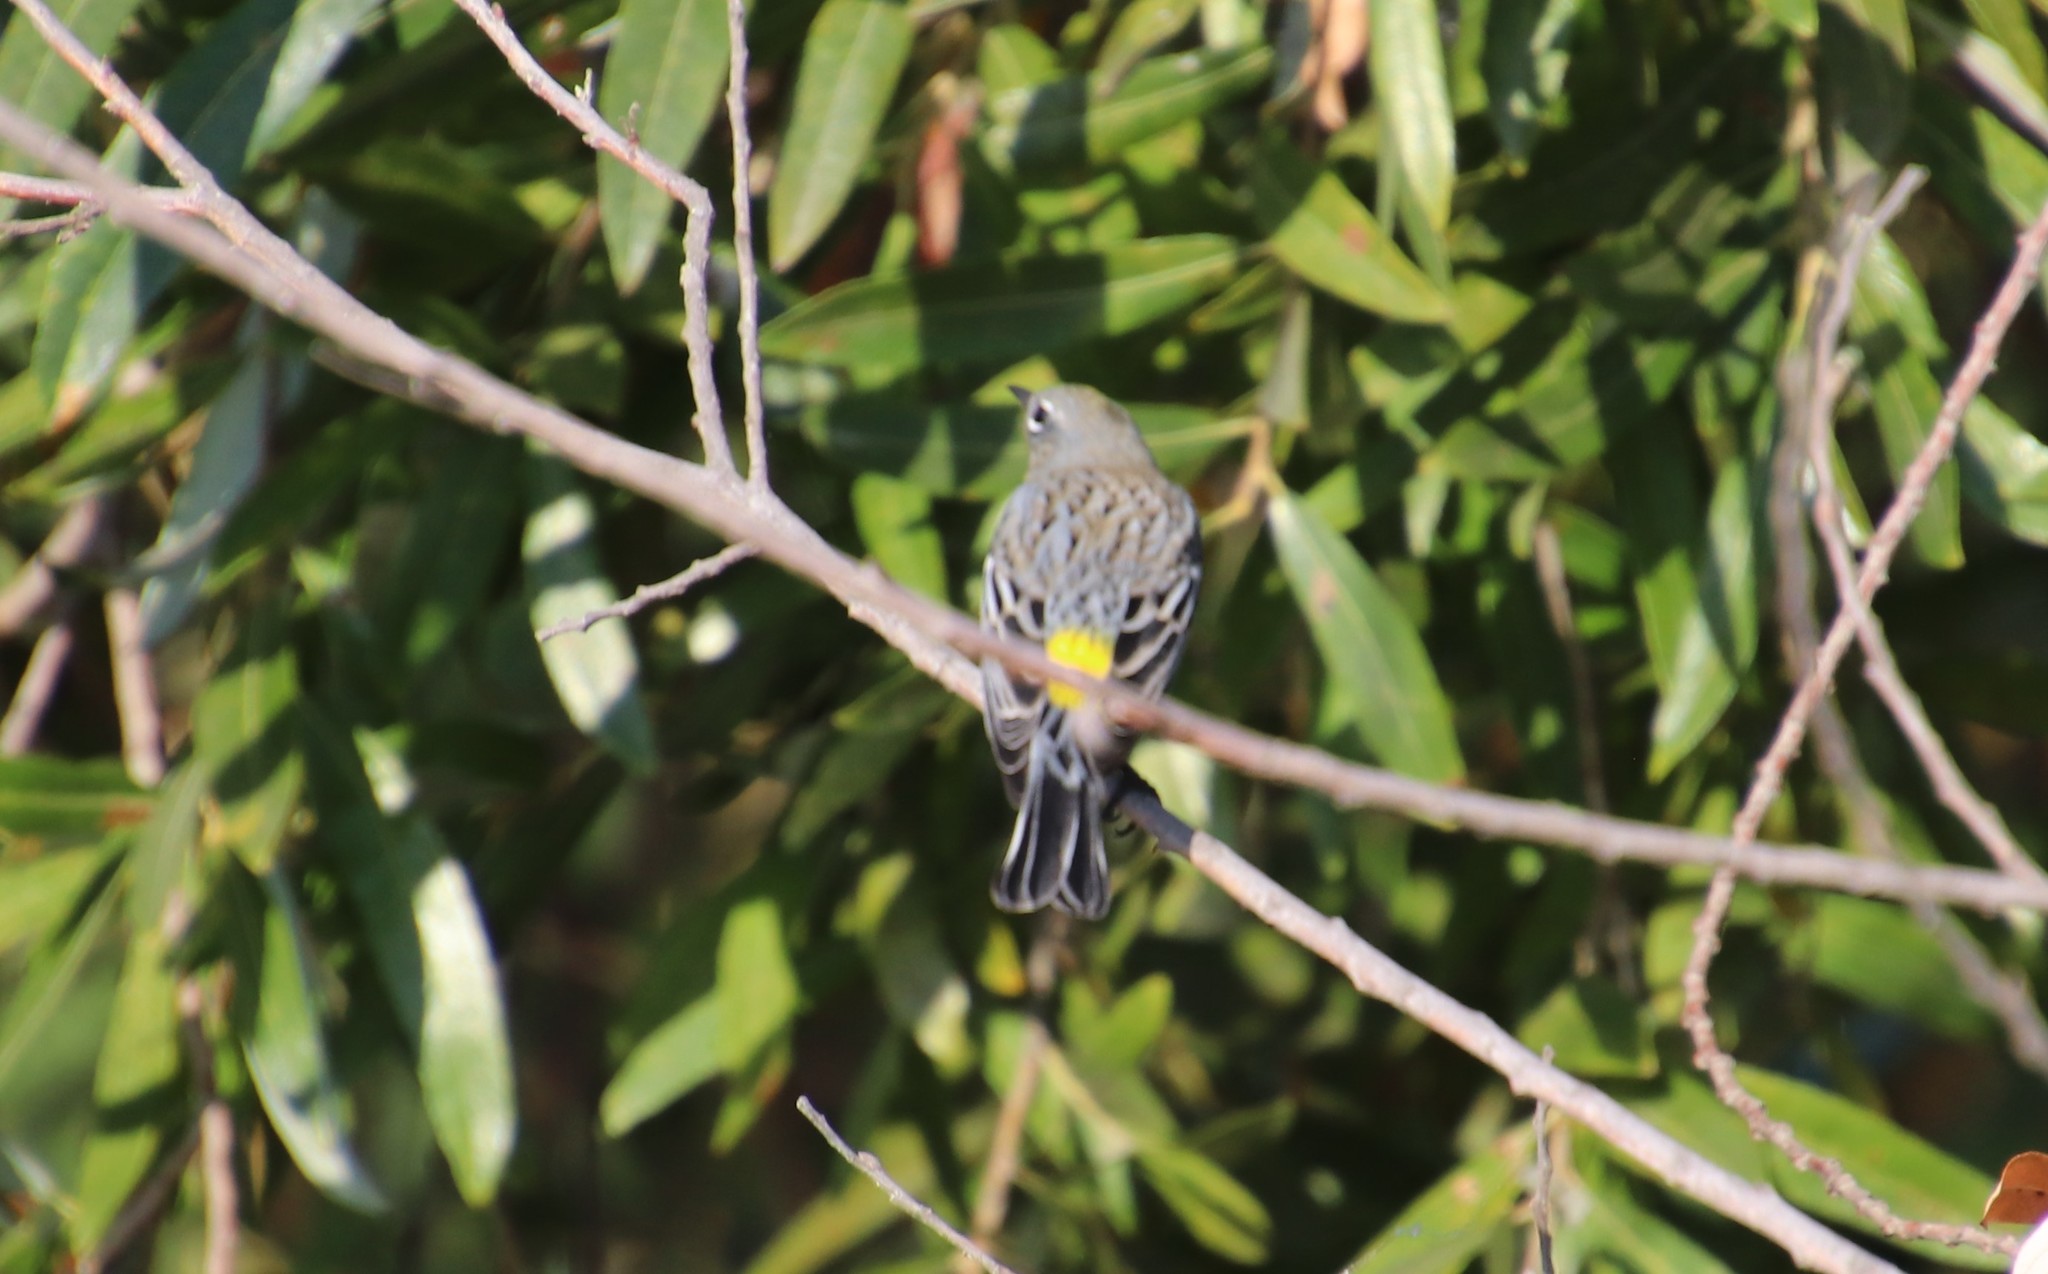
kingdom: Animalia
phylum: Chordata
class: Aves
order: Passeriformes
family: Parulidae
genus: Setophaga
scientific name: Setophaga auduboni
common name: Audubon's warbler
